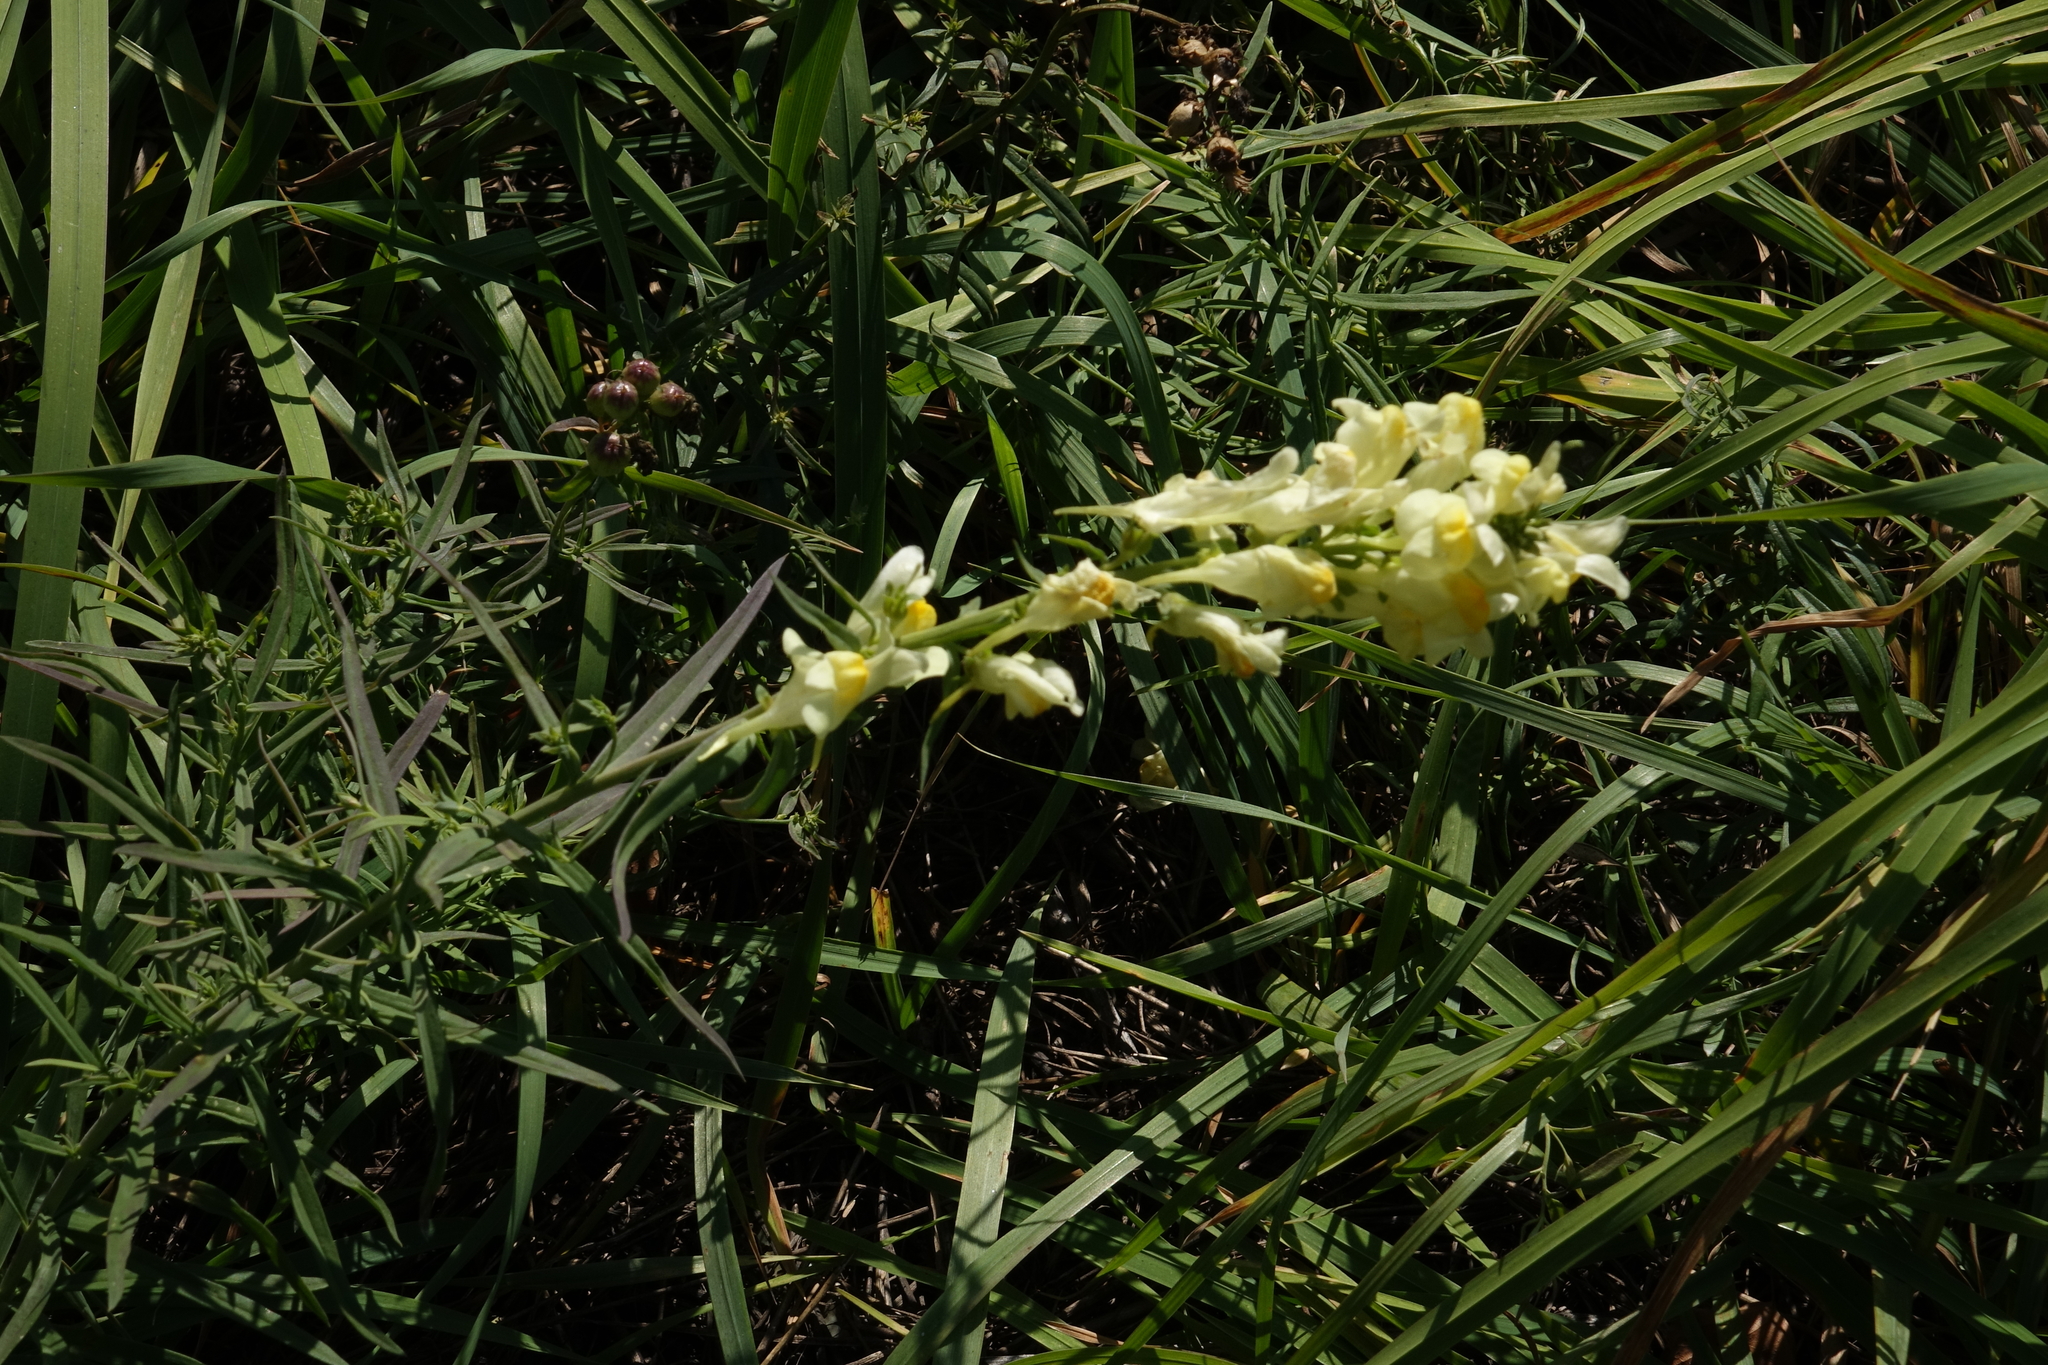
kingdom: Plantae
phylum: Tracheophyta
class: Magnoliopsida
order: Lamiales
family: Plantaginaceae
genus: Linaria
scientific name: Linaria vulgaris
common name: Butter and eggs
